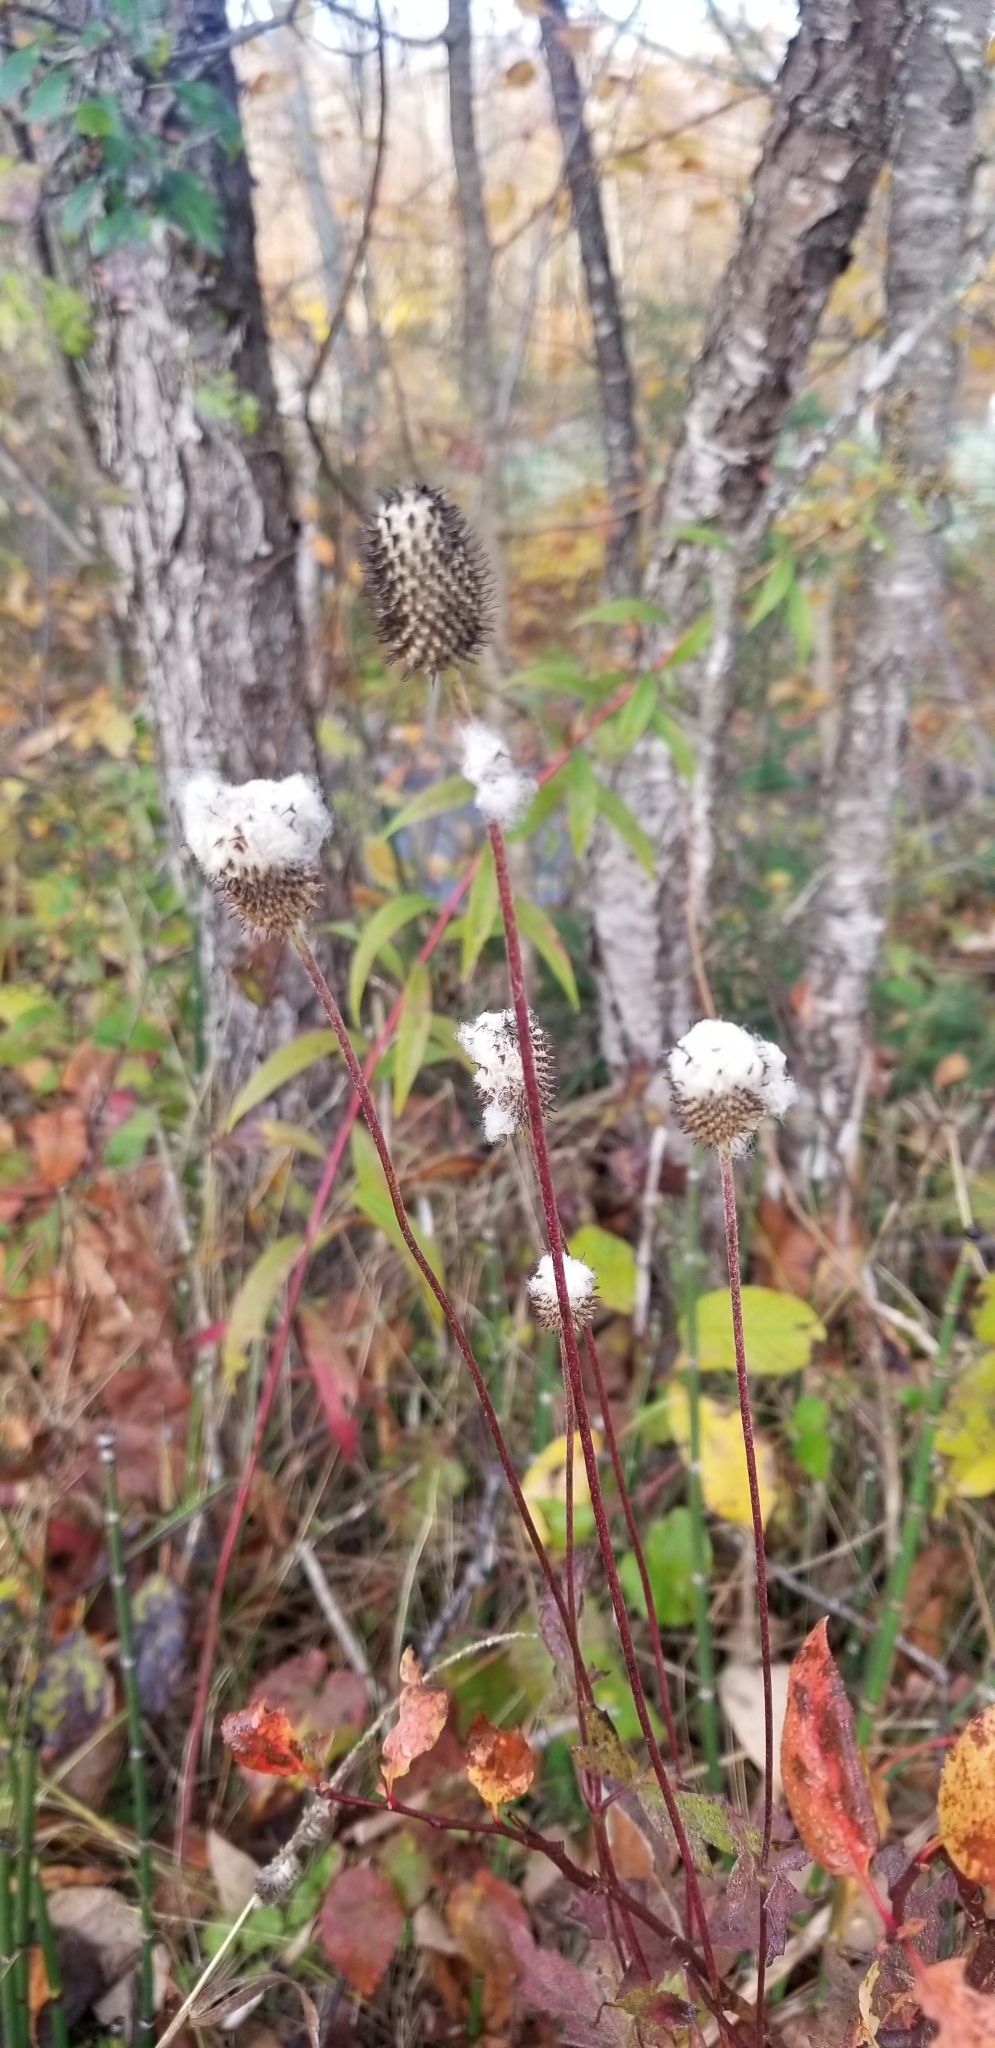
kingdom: Plantae
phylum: Tracheophyta
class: Magnoliopsida
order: Ranunculales
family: Ranunculaceae
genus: Anemone
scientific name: Anemone virginiana
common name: Tall anemone
